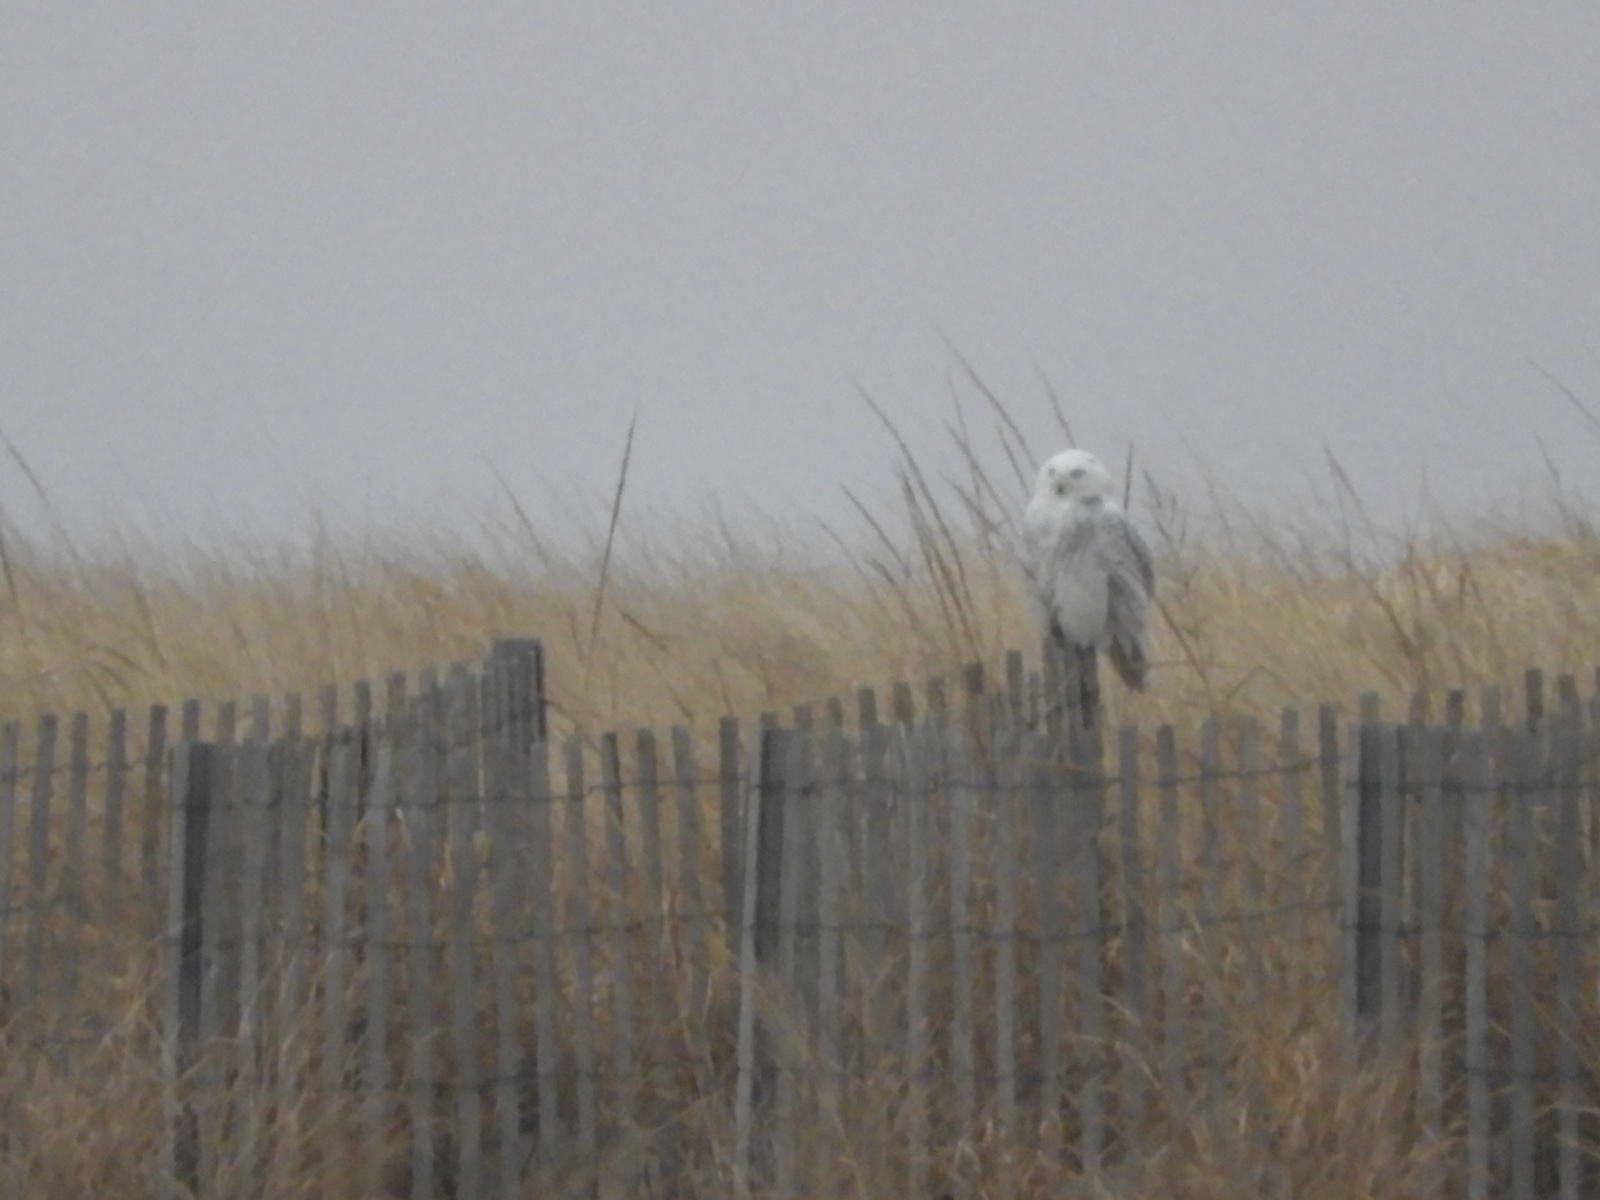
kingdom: Animalia
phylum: Chordata
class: Aves
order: Strigiformes
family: Strigidae
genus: Bubo
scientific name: Bubo scandiacus
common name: Snowy owl
